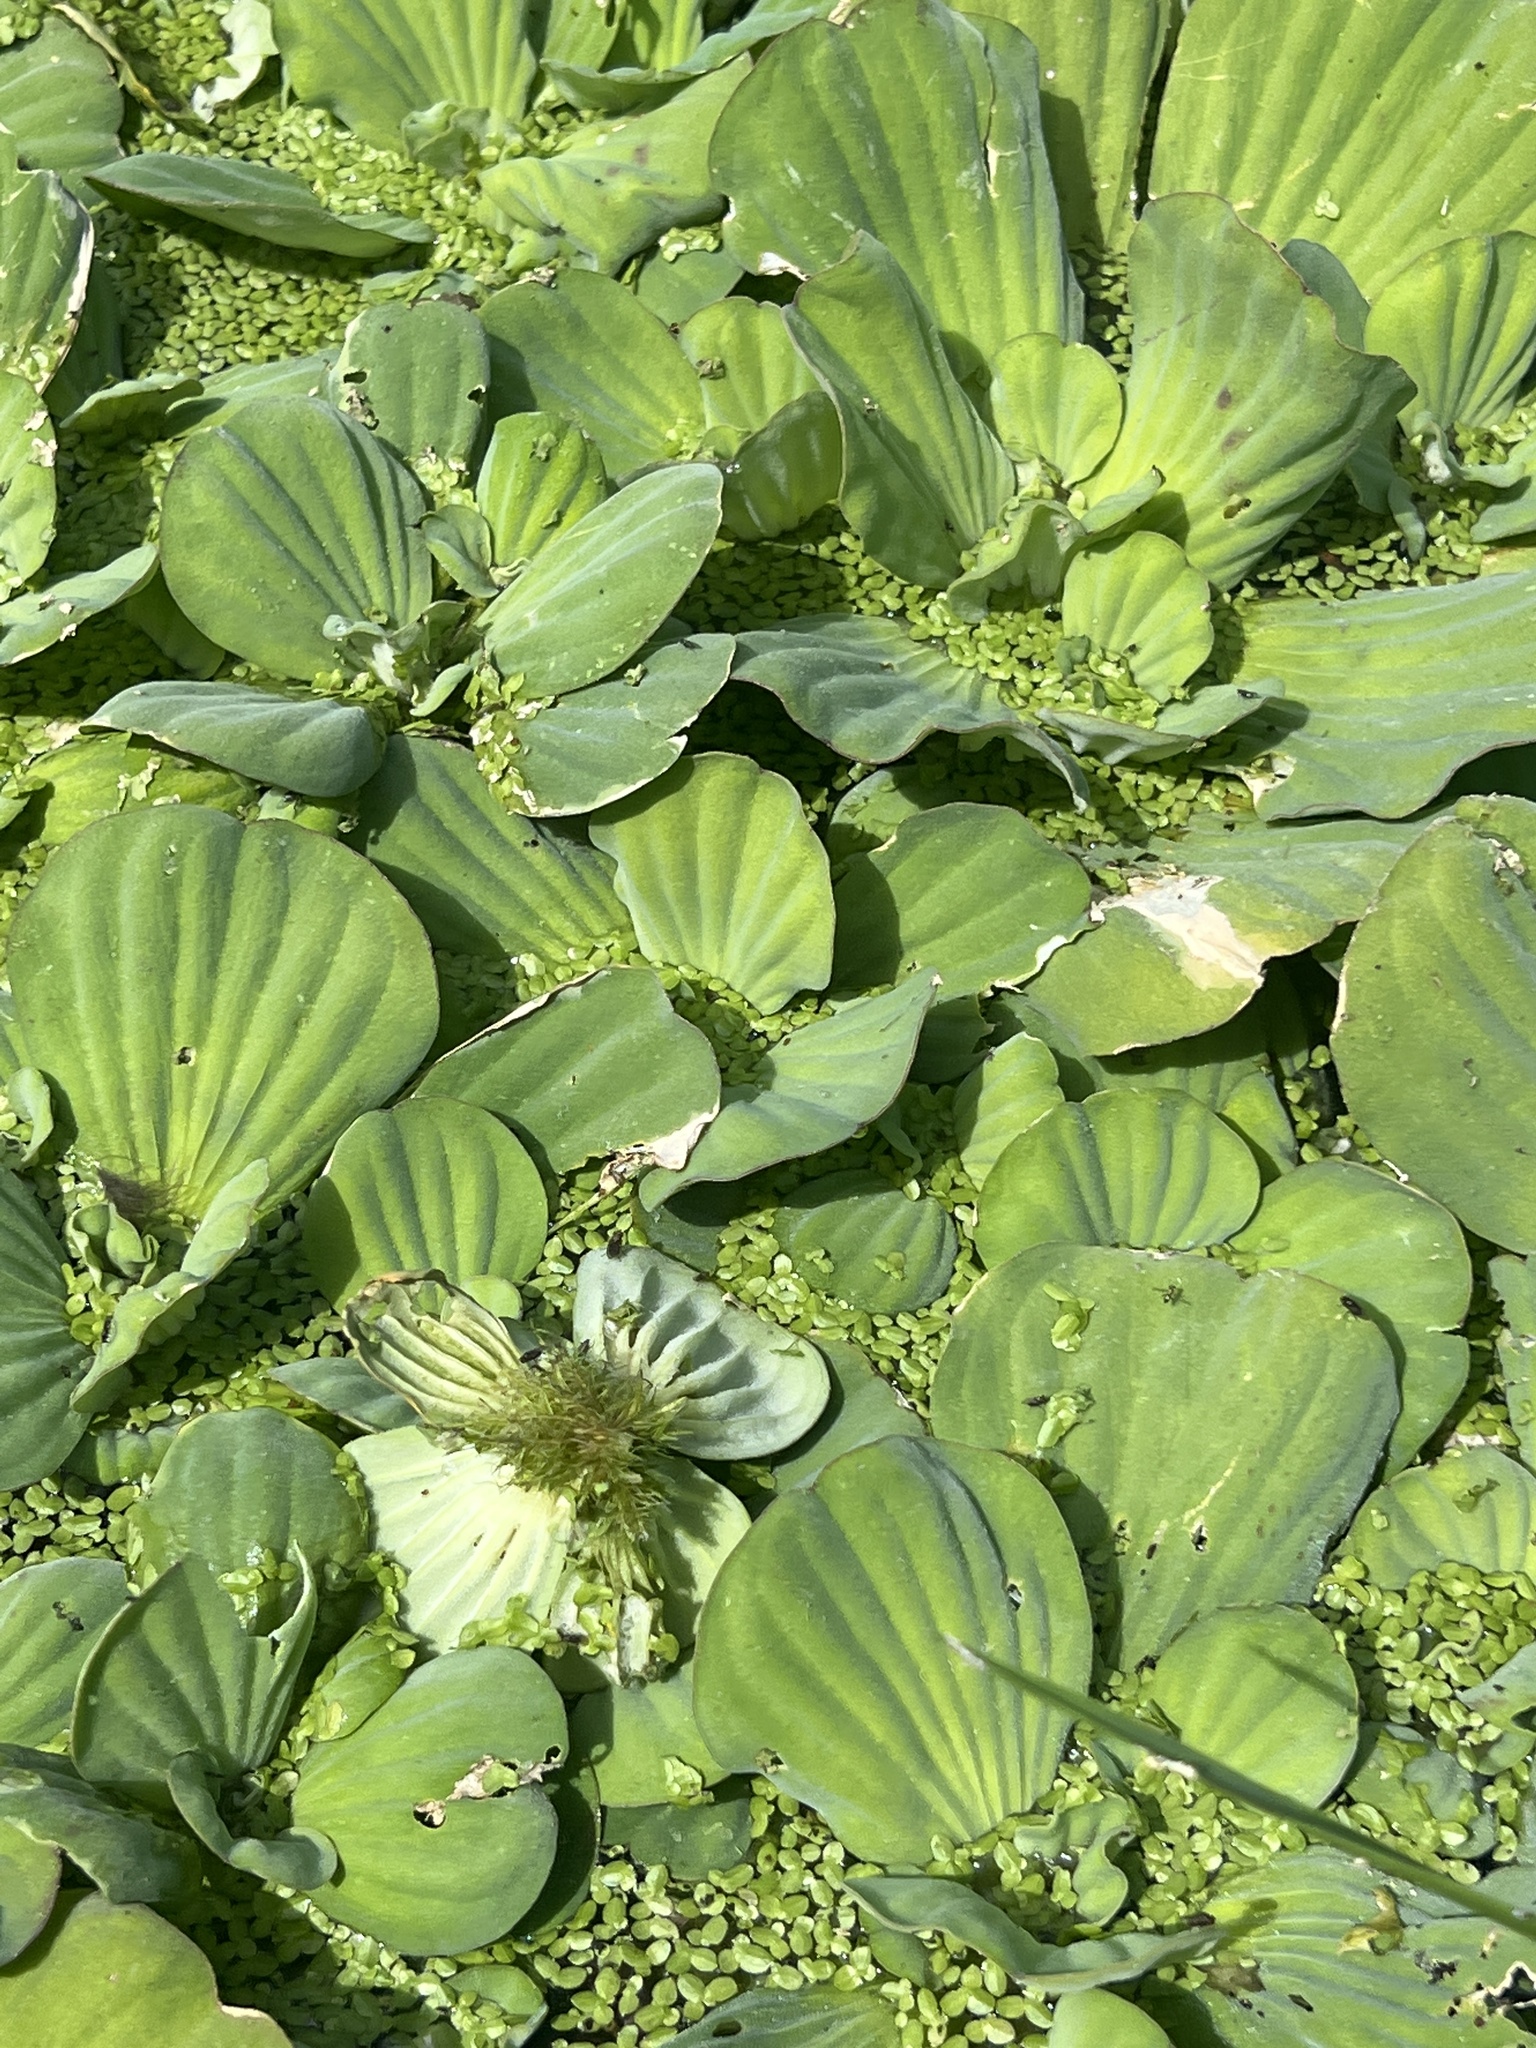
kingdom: Plantae
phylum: Tracheophyta
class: Liliopsida
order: Alismatales
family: Araceae
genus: Pistia
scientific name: Pistia stratiotes
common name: Water lettuce
